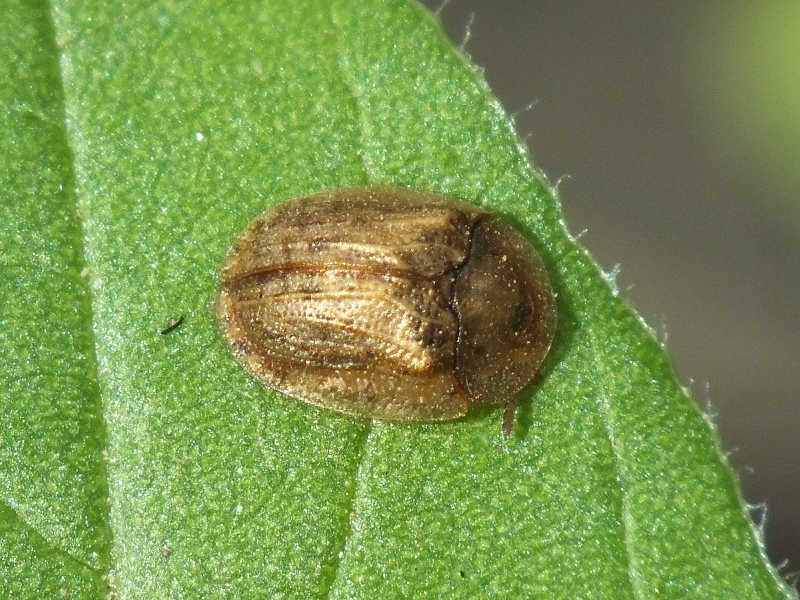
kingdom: Animalia
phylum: Arthropoda
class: Insecta
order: Coleoptera
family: Chrysomelidae
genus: Hypocassida
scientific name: Hypocassida subferruginea
